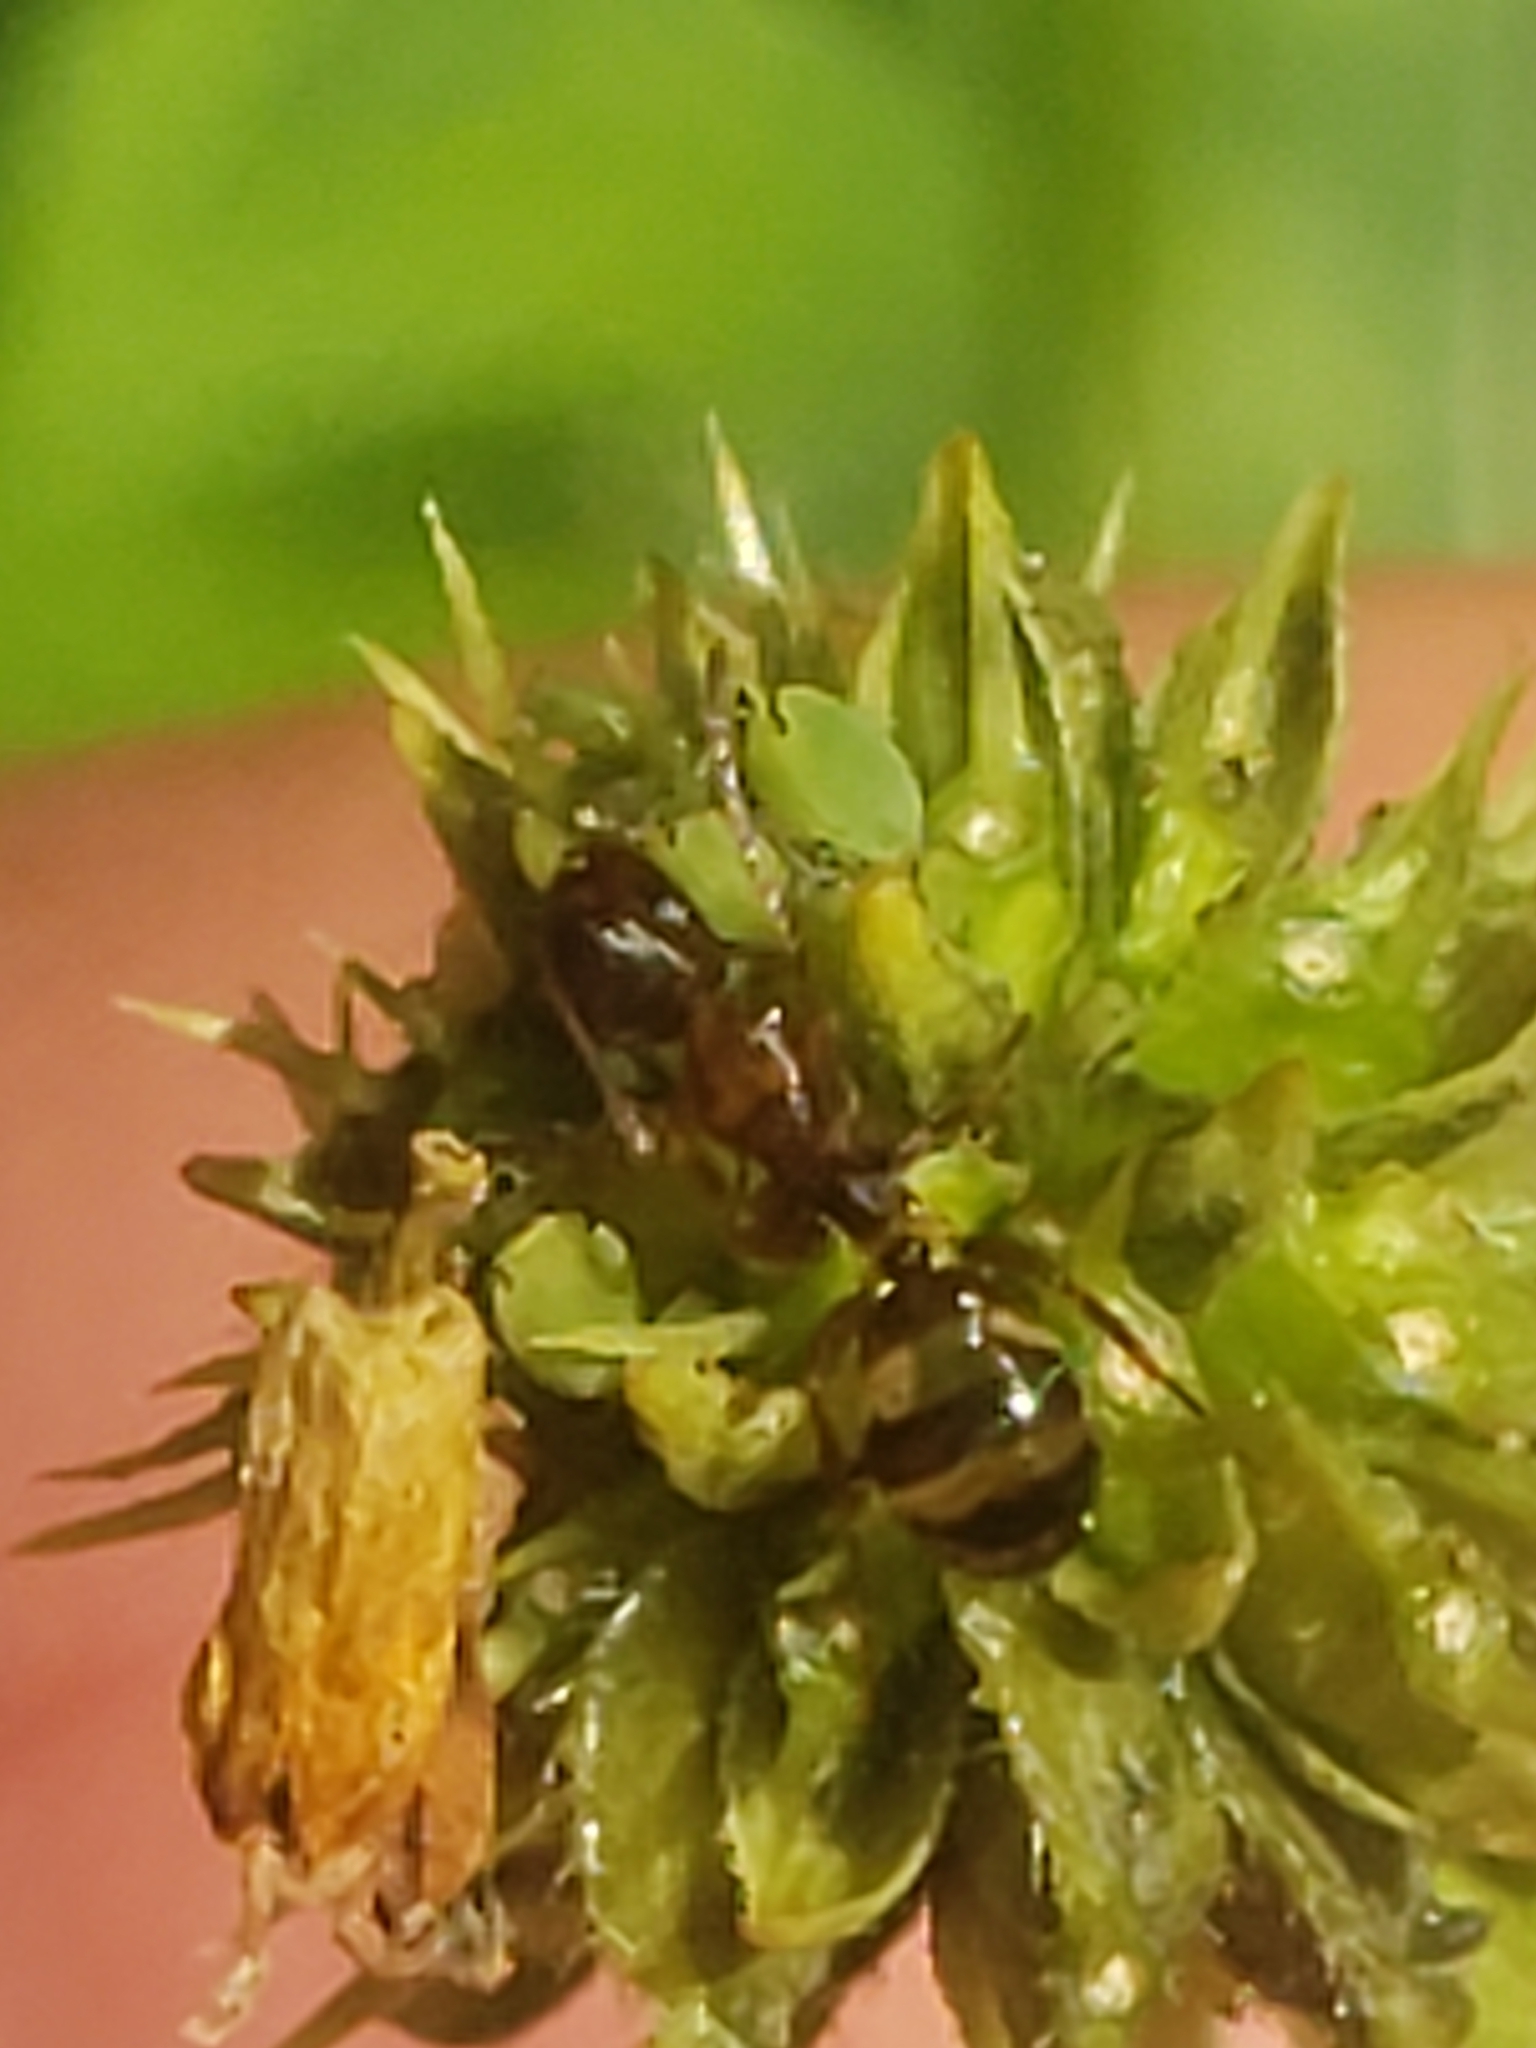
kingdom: Animalia
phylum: Arthropoda
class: Insecta
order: Hymenoptera
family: Formicidae
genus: Camponotus
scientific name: Camponotus subbarbatus
